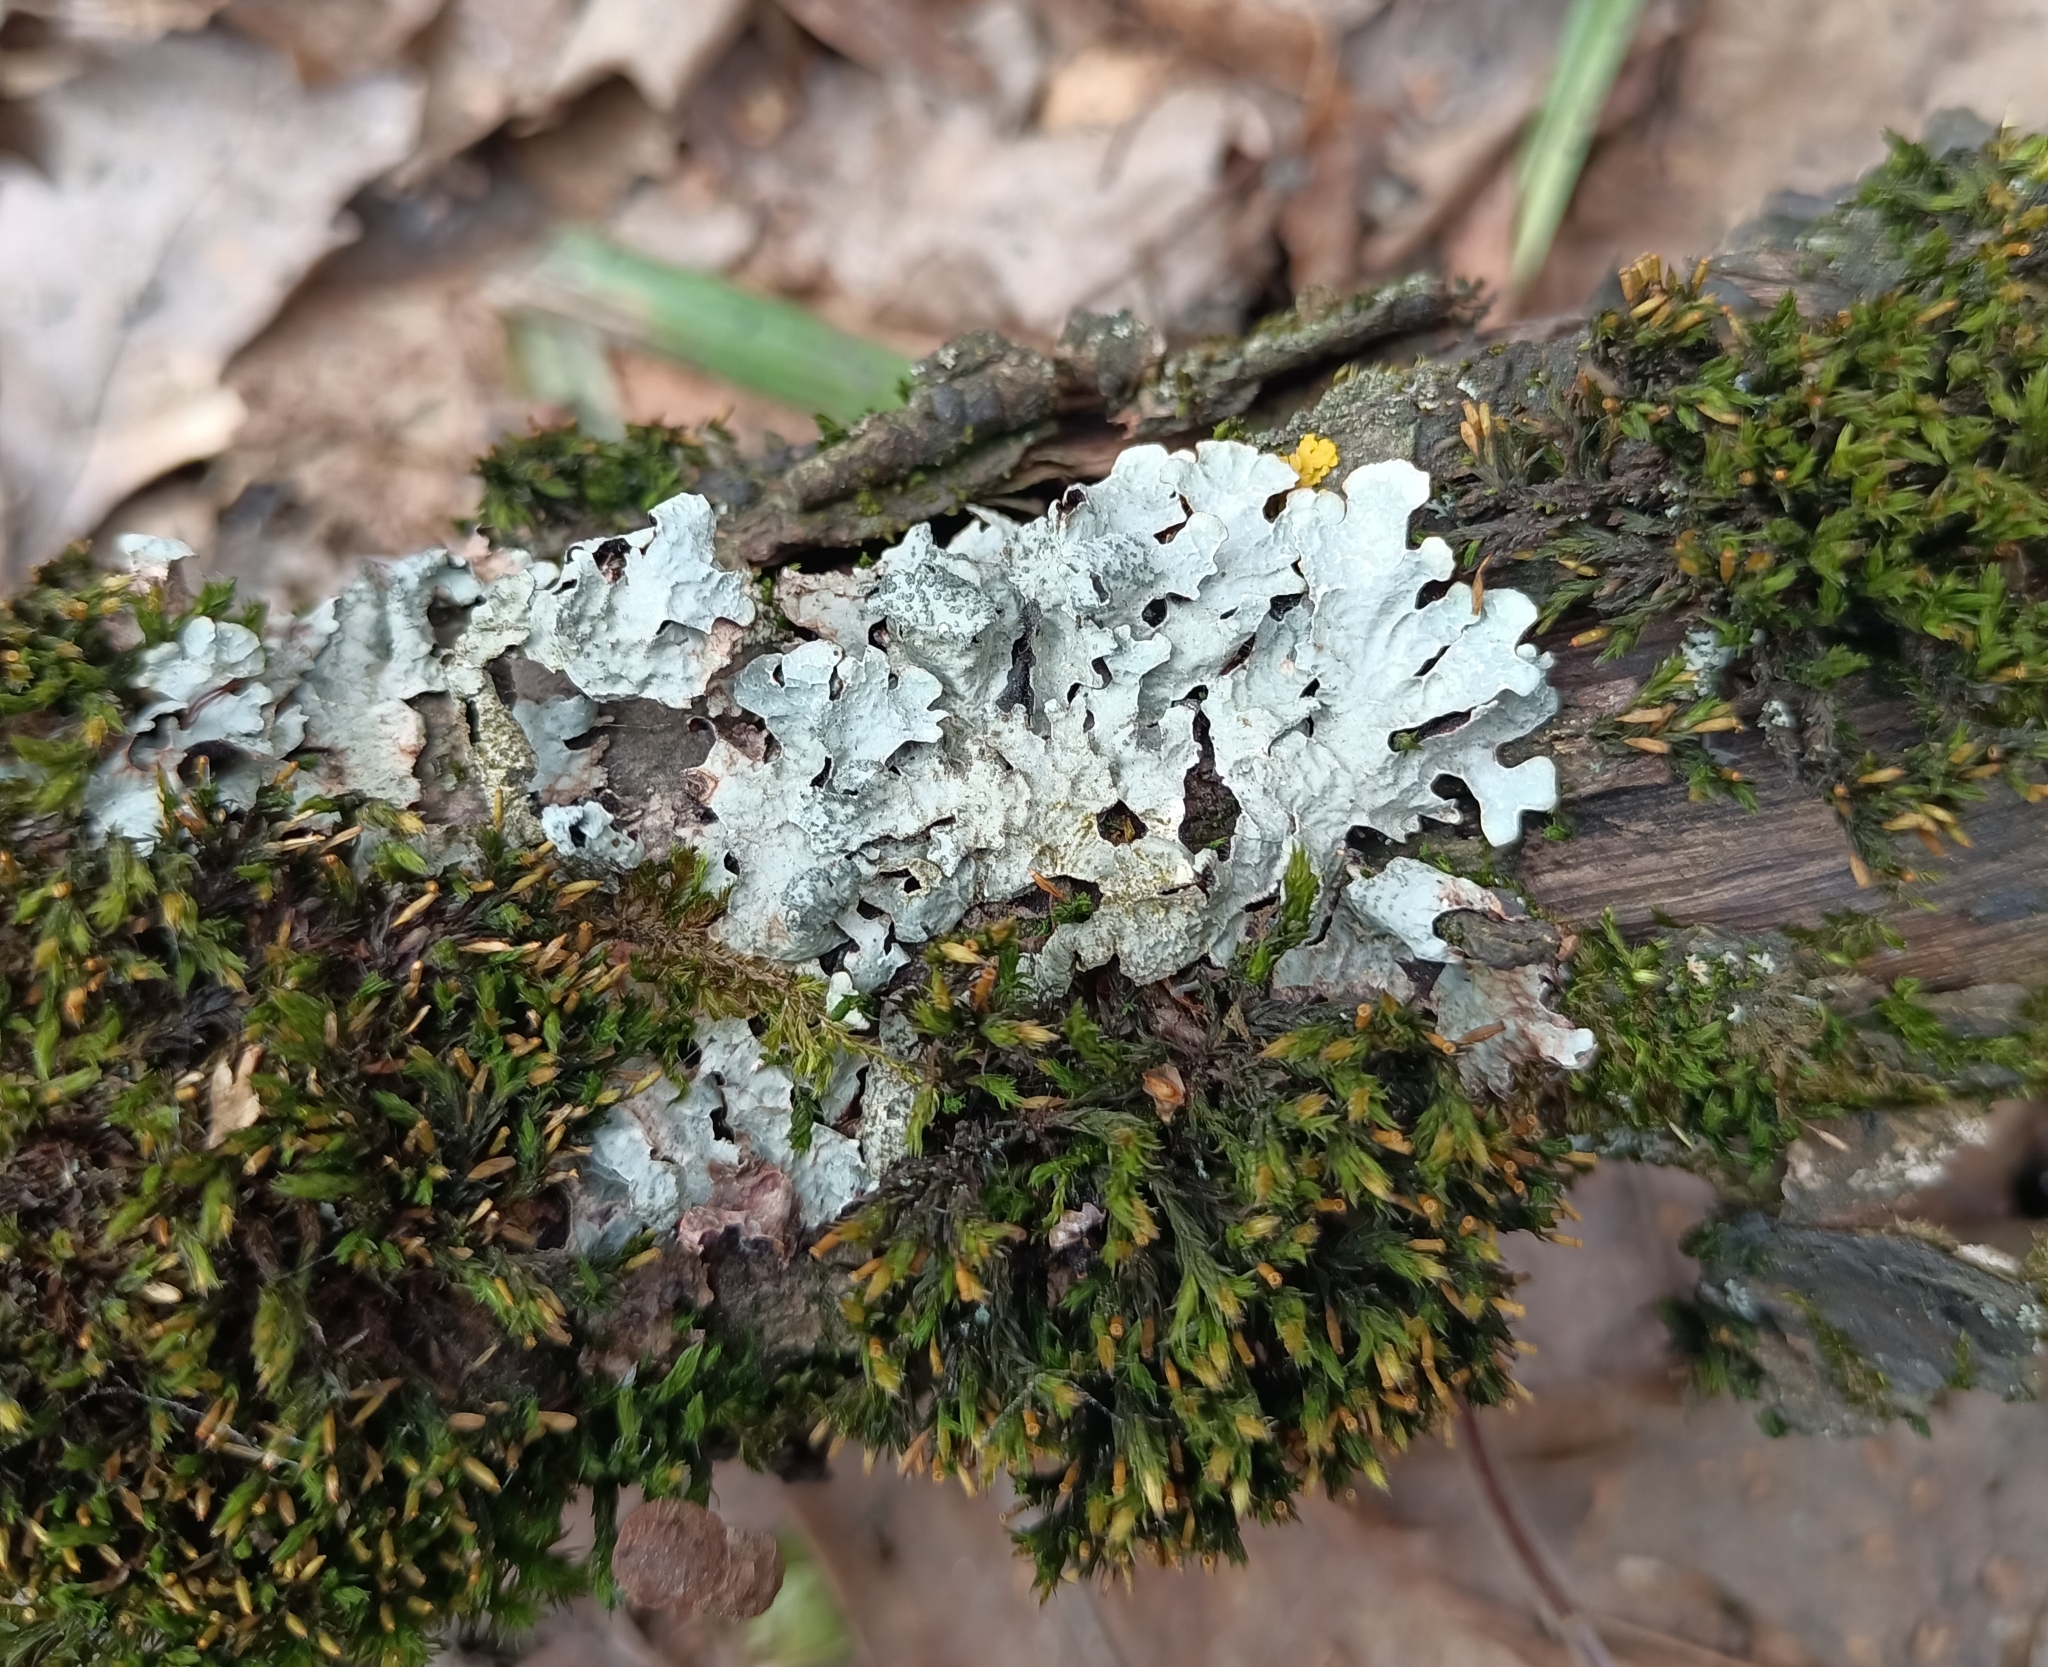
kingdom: Fungi
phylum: Ascomycota
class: Lecanoromycetes
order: Lecanorales
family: Parmeliaceae
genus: Parmelia
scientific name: Parmelia sulcata
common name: Netted shield lichen
